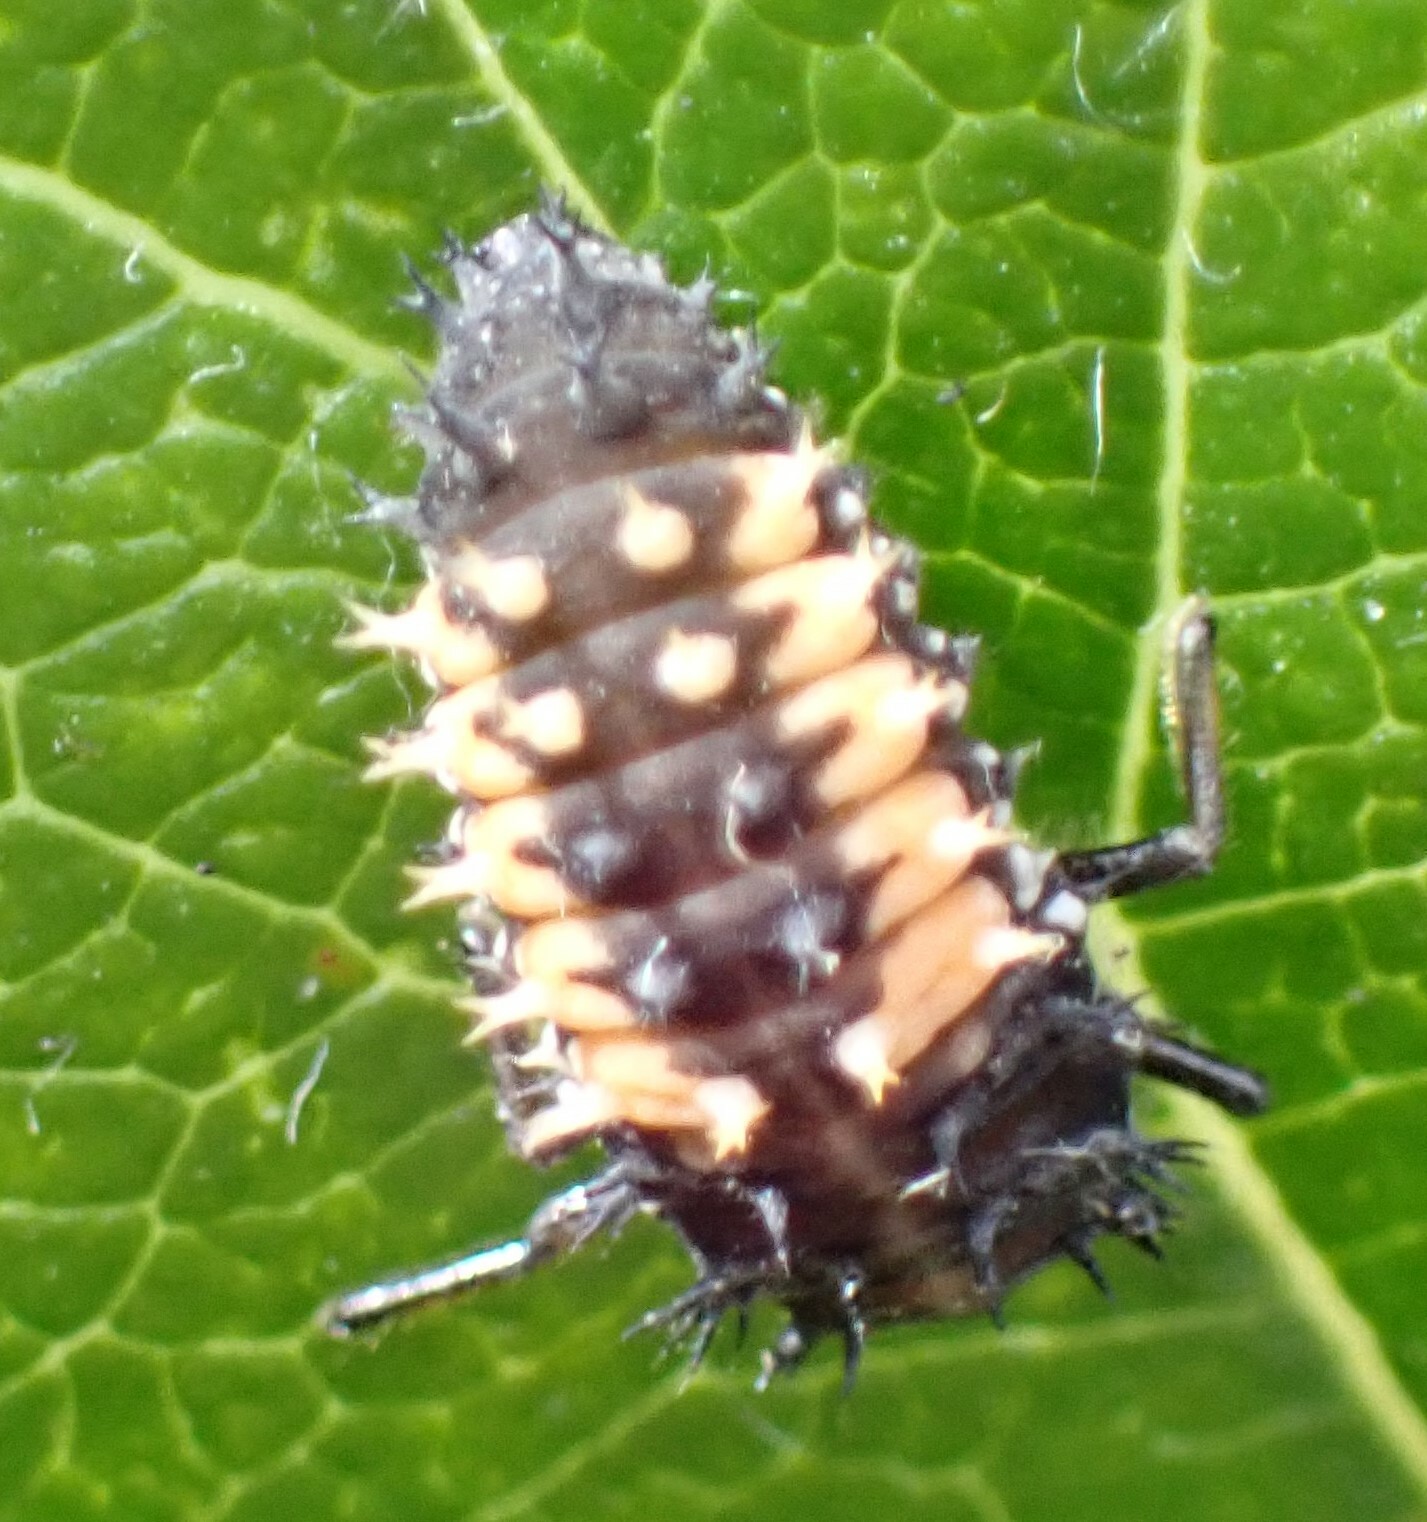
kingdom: Animalia
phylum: Arthropoda
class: Insecta
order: Coleoptera
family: Coccinellidae
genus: Harmonia
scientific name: Harmonia axyridis
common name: Harlequin ladybird
